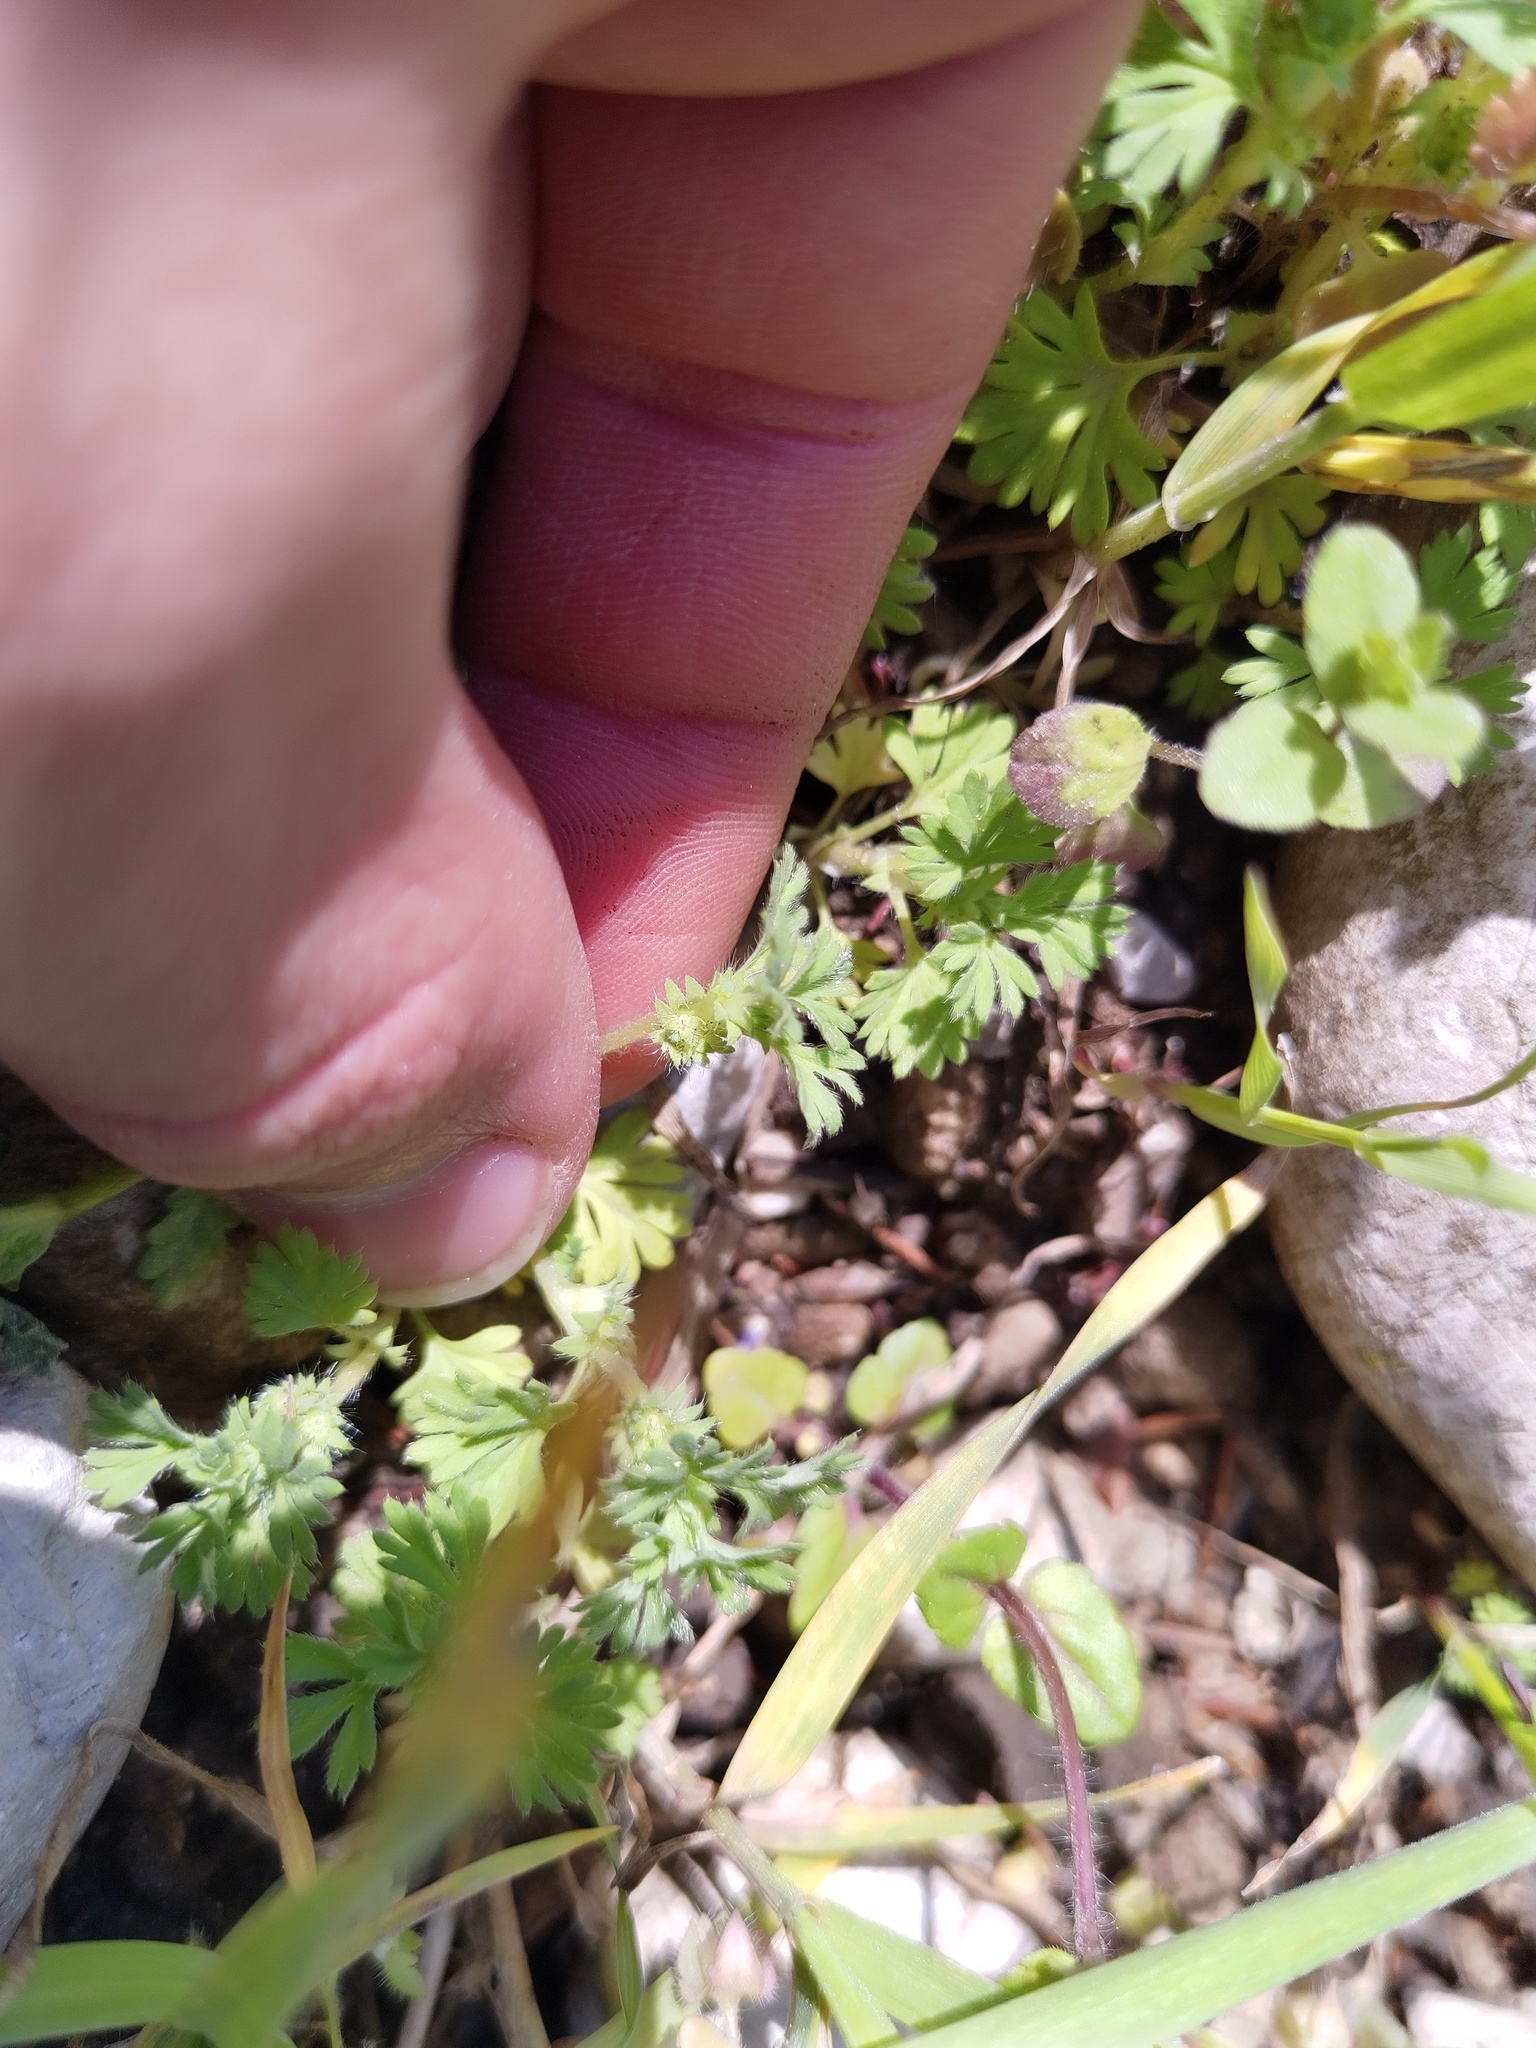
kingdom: Plantae
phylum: Tracheophyta
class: Magnoliopsida
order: Rosales
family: Rosaceae
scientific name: Rosaceae
